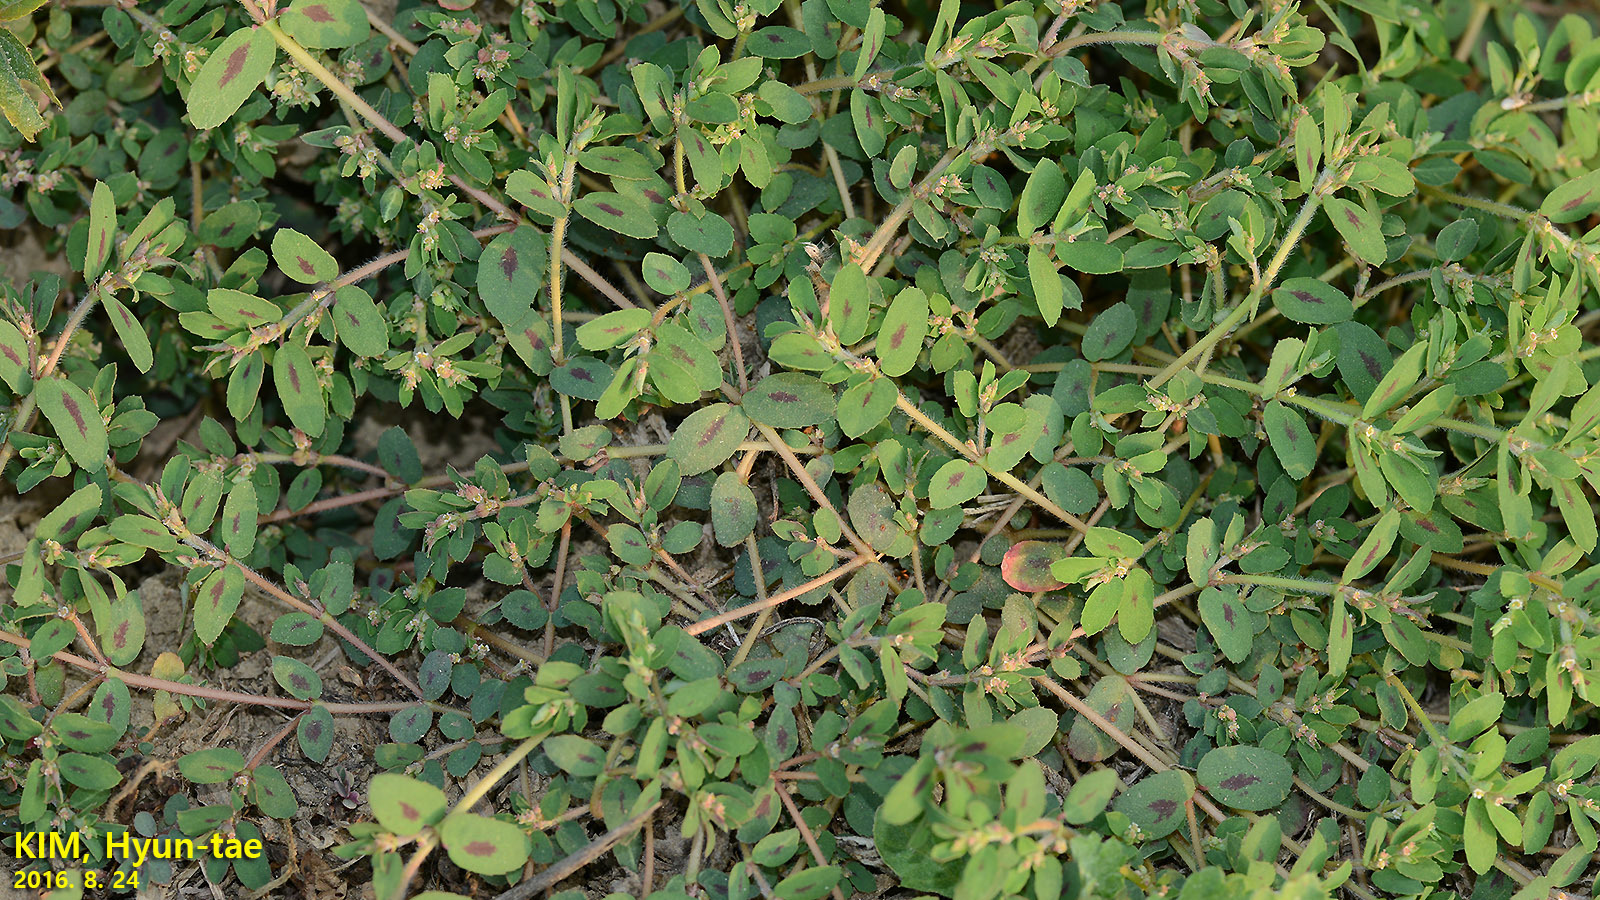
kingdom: Plantae
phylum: Tracheophyta
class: Magnoliopsida
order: Malpighiales
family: Euphorbiaceae
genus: Euphorbia
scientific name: Euphorbia maculata
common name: Spotted spurge
